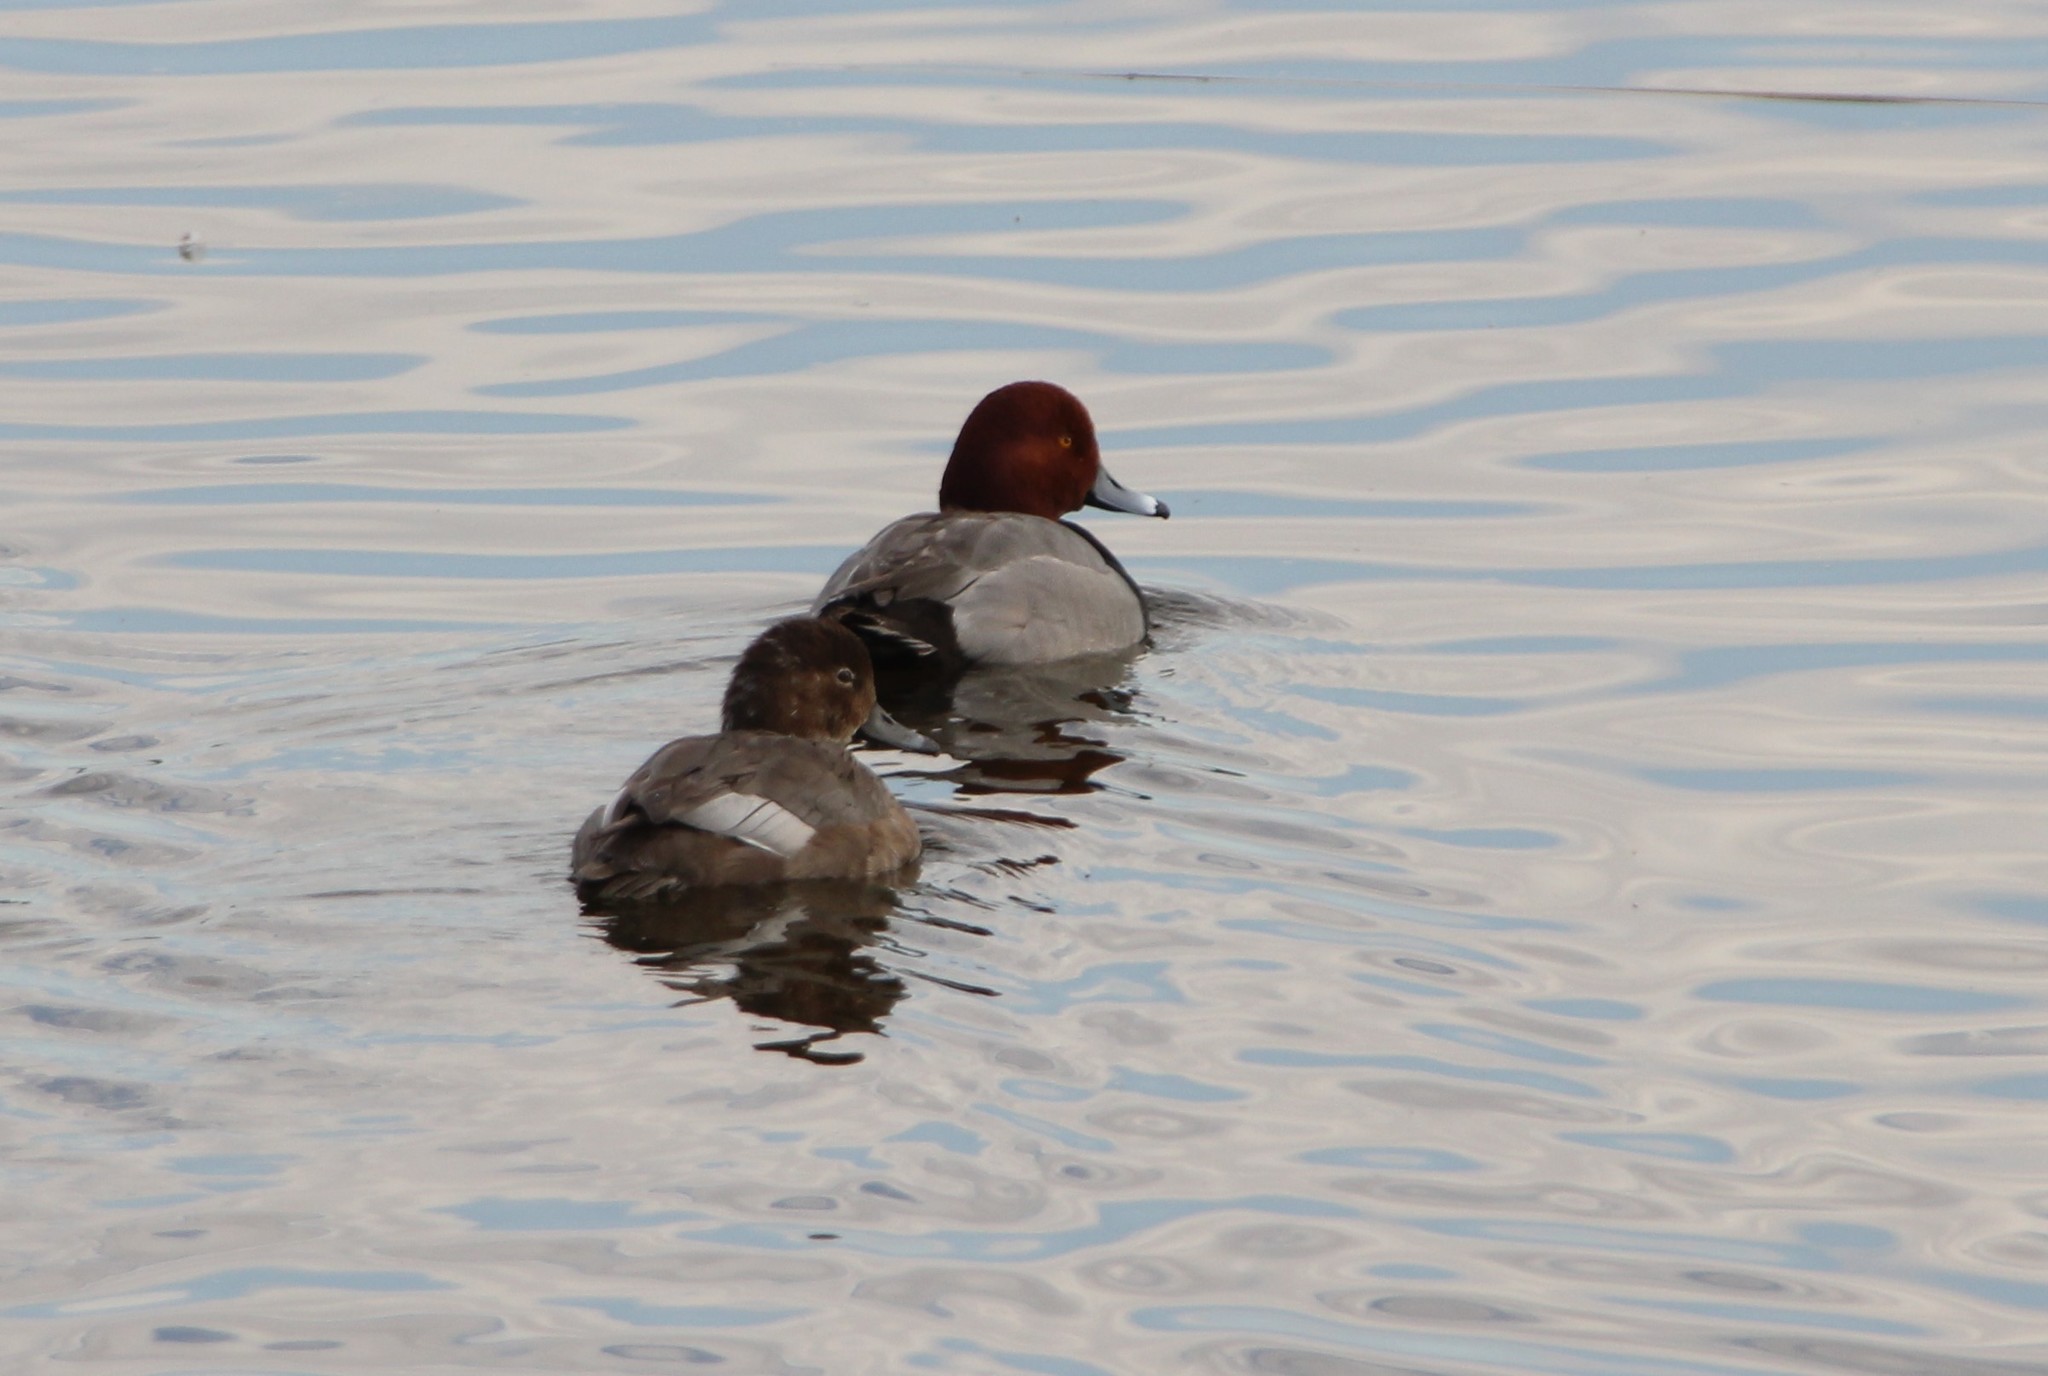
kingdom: Animalia
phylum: Chordata
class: Aves
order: Anseriformes
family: Anatidae
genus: Aythya
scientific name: Aythya americana
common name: Redhead
